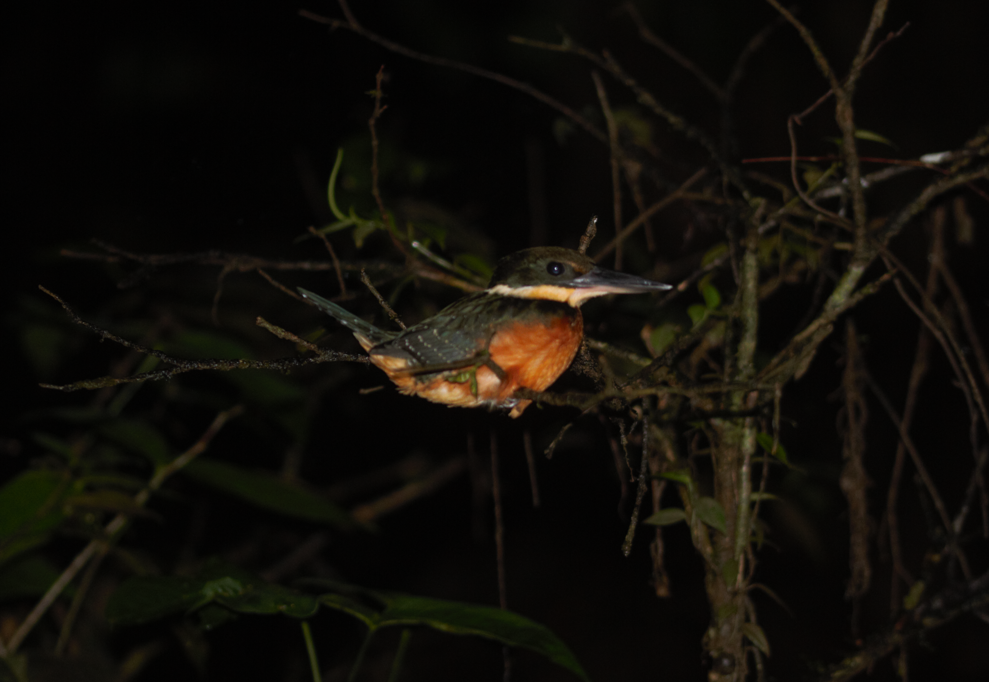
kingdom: Animalia
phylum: Chordata
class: Aves
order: Coraciiformes
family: Alcedinidae
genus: Chloroceryle
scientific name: Chloroceryle inda
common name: Green-and-rufous kingfisher
